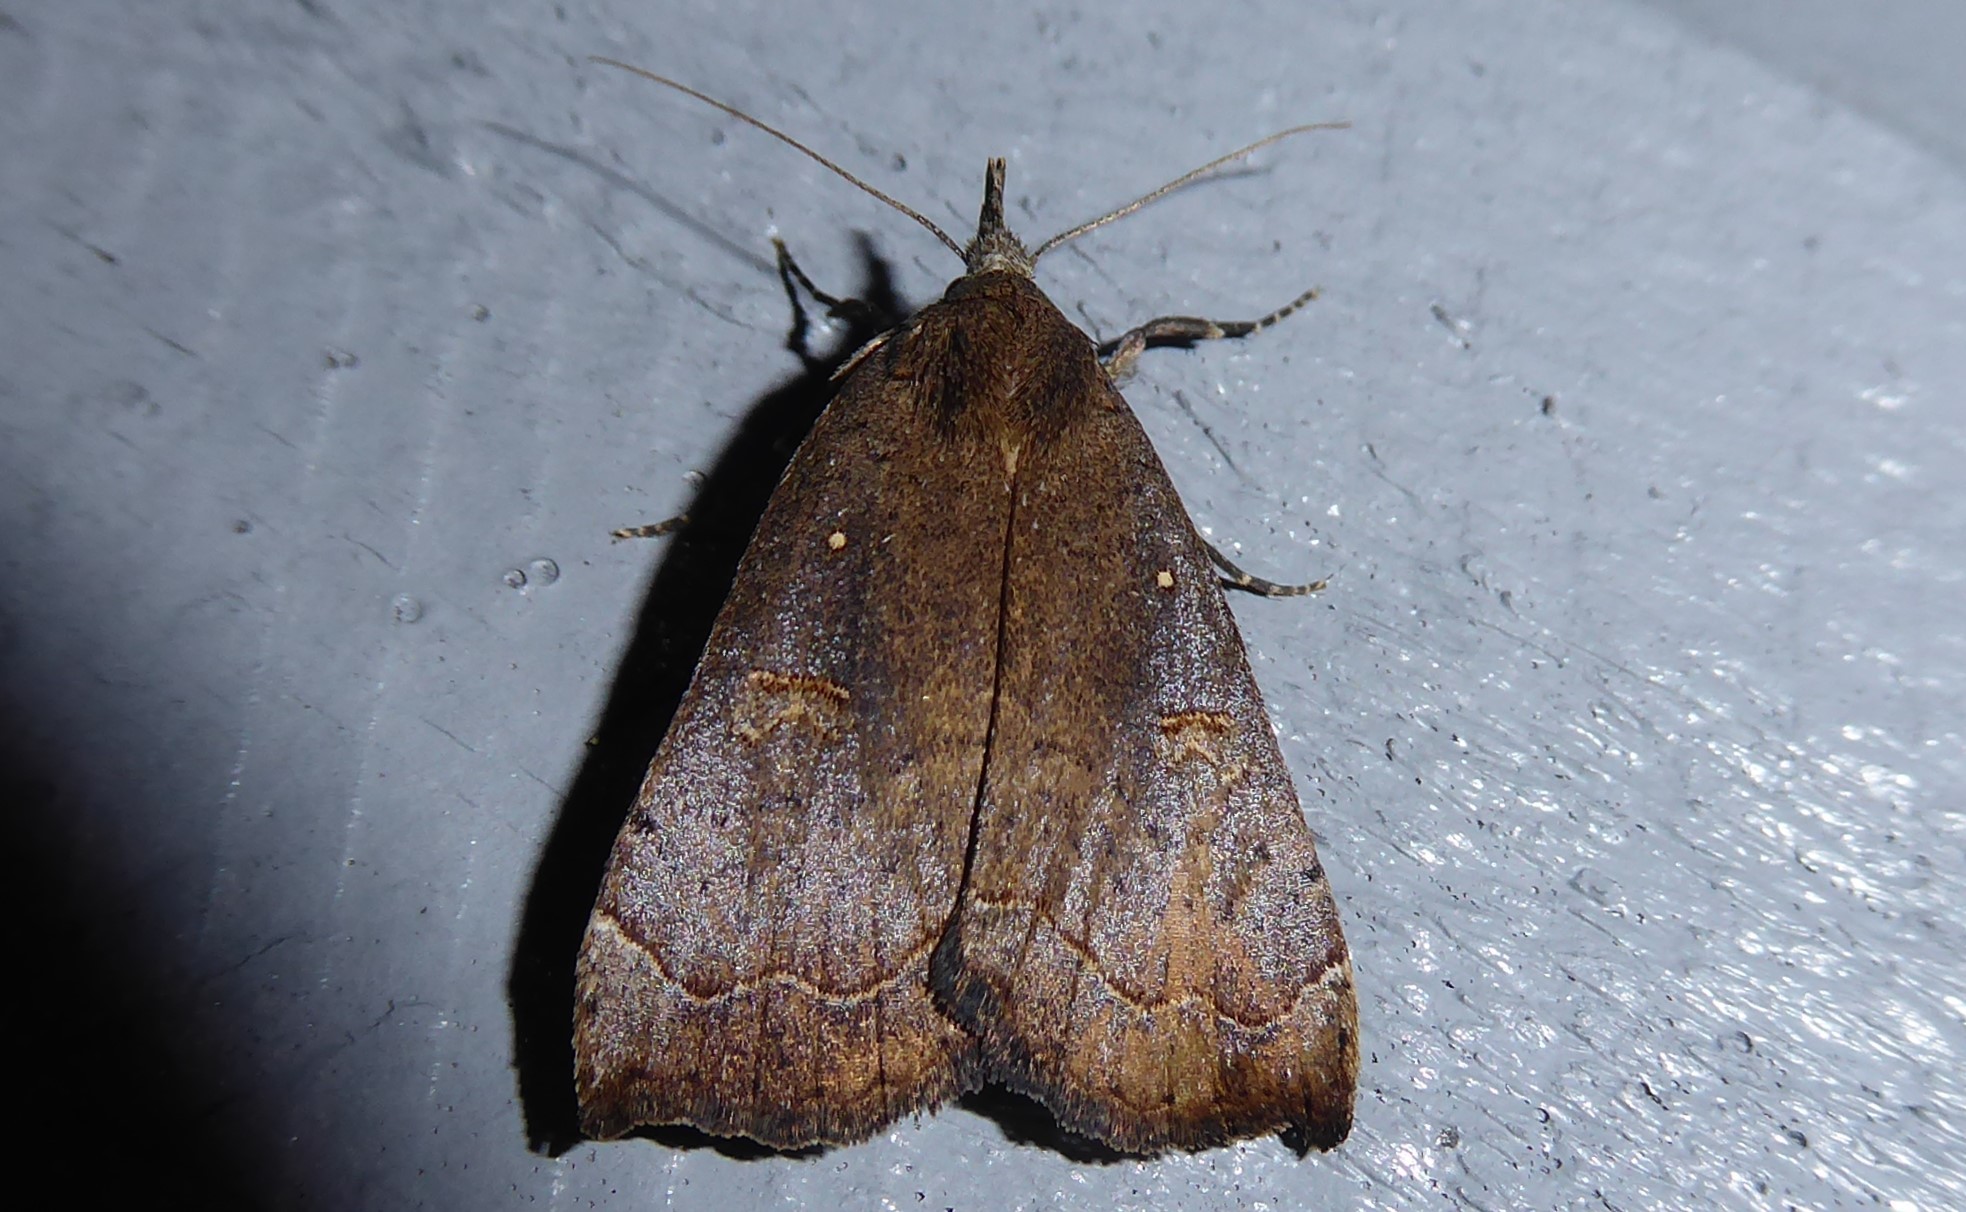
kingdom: Animalia
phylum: Arthropoda
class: Insecta
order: Lepidoptera
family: Erebidae
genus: Rhapsa
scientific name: Rhapsa scotosialis
